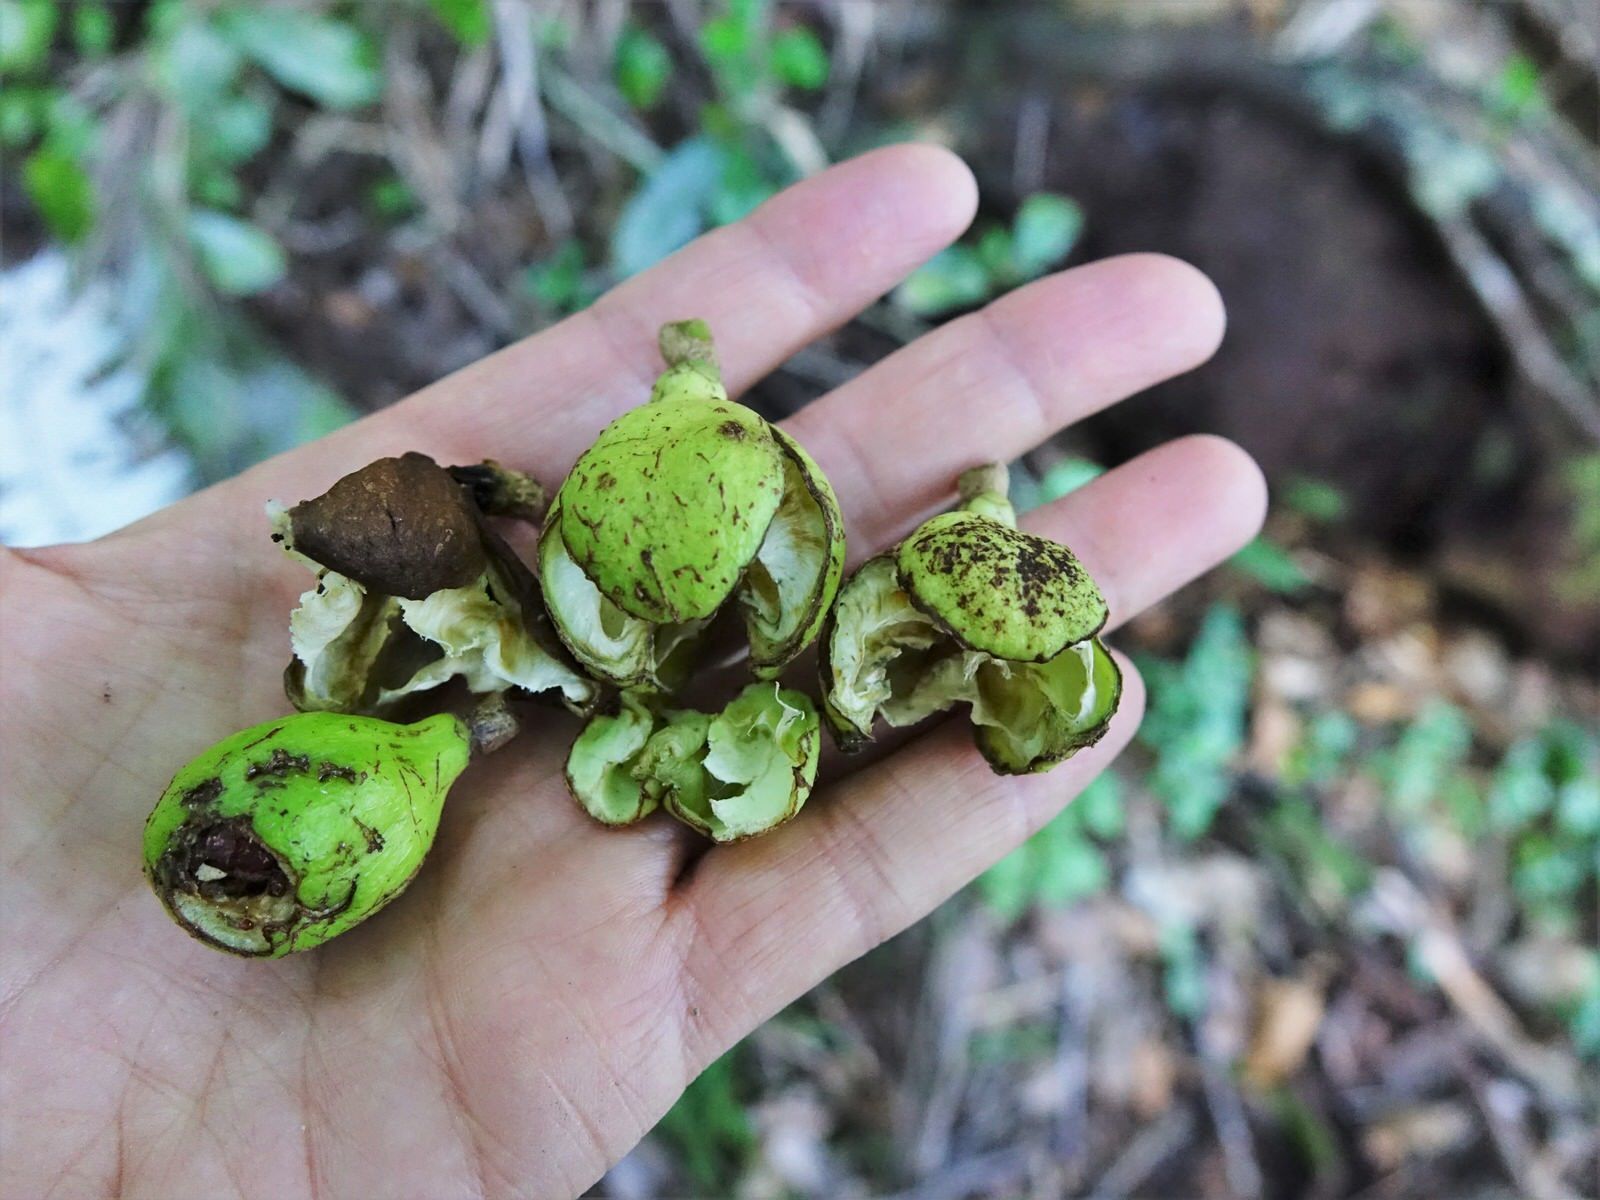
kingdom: Plantae
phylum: Tracheophyta
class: Magnoliopsida
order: Sapindales
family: Meliaceae
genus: Didymocheton
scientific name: Didymocheton spectabilis
